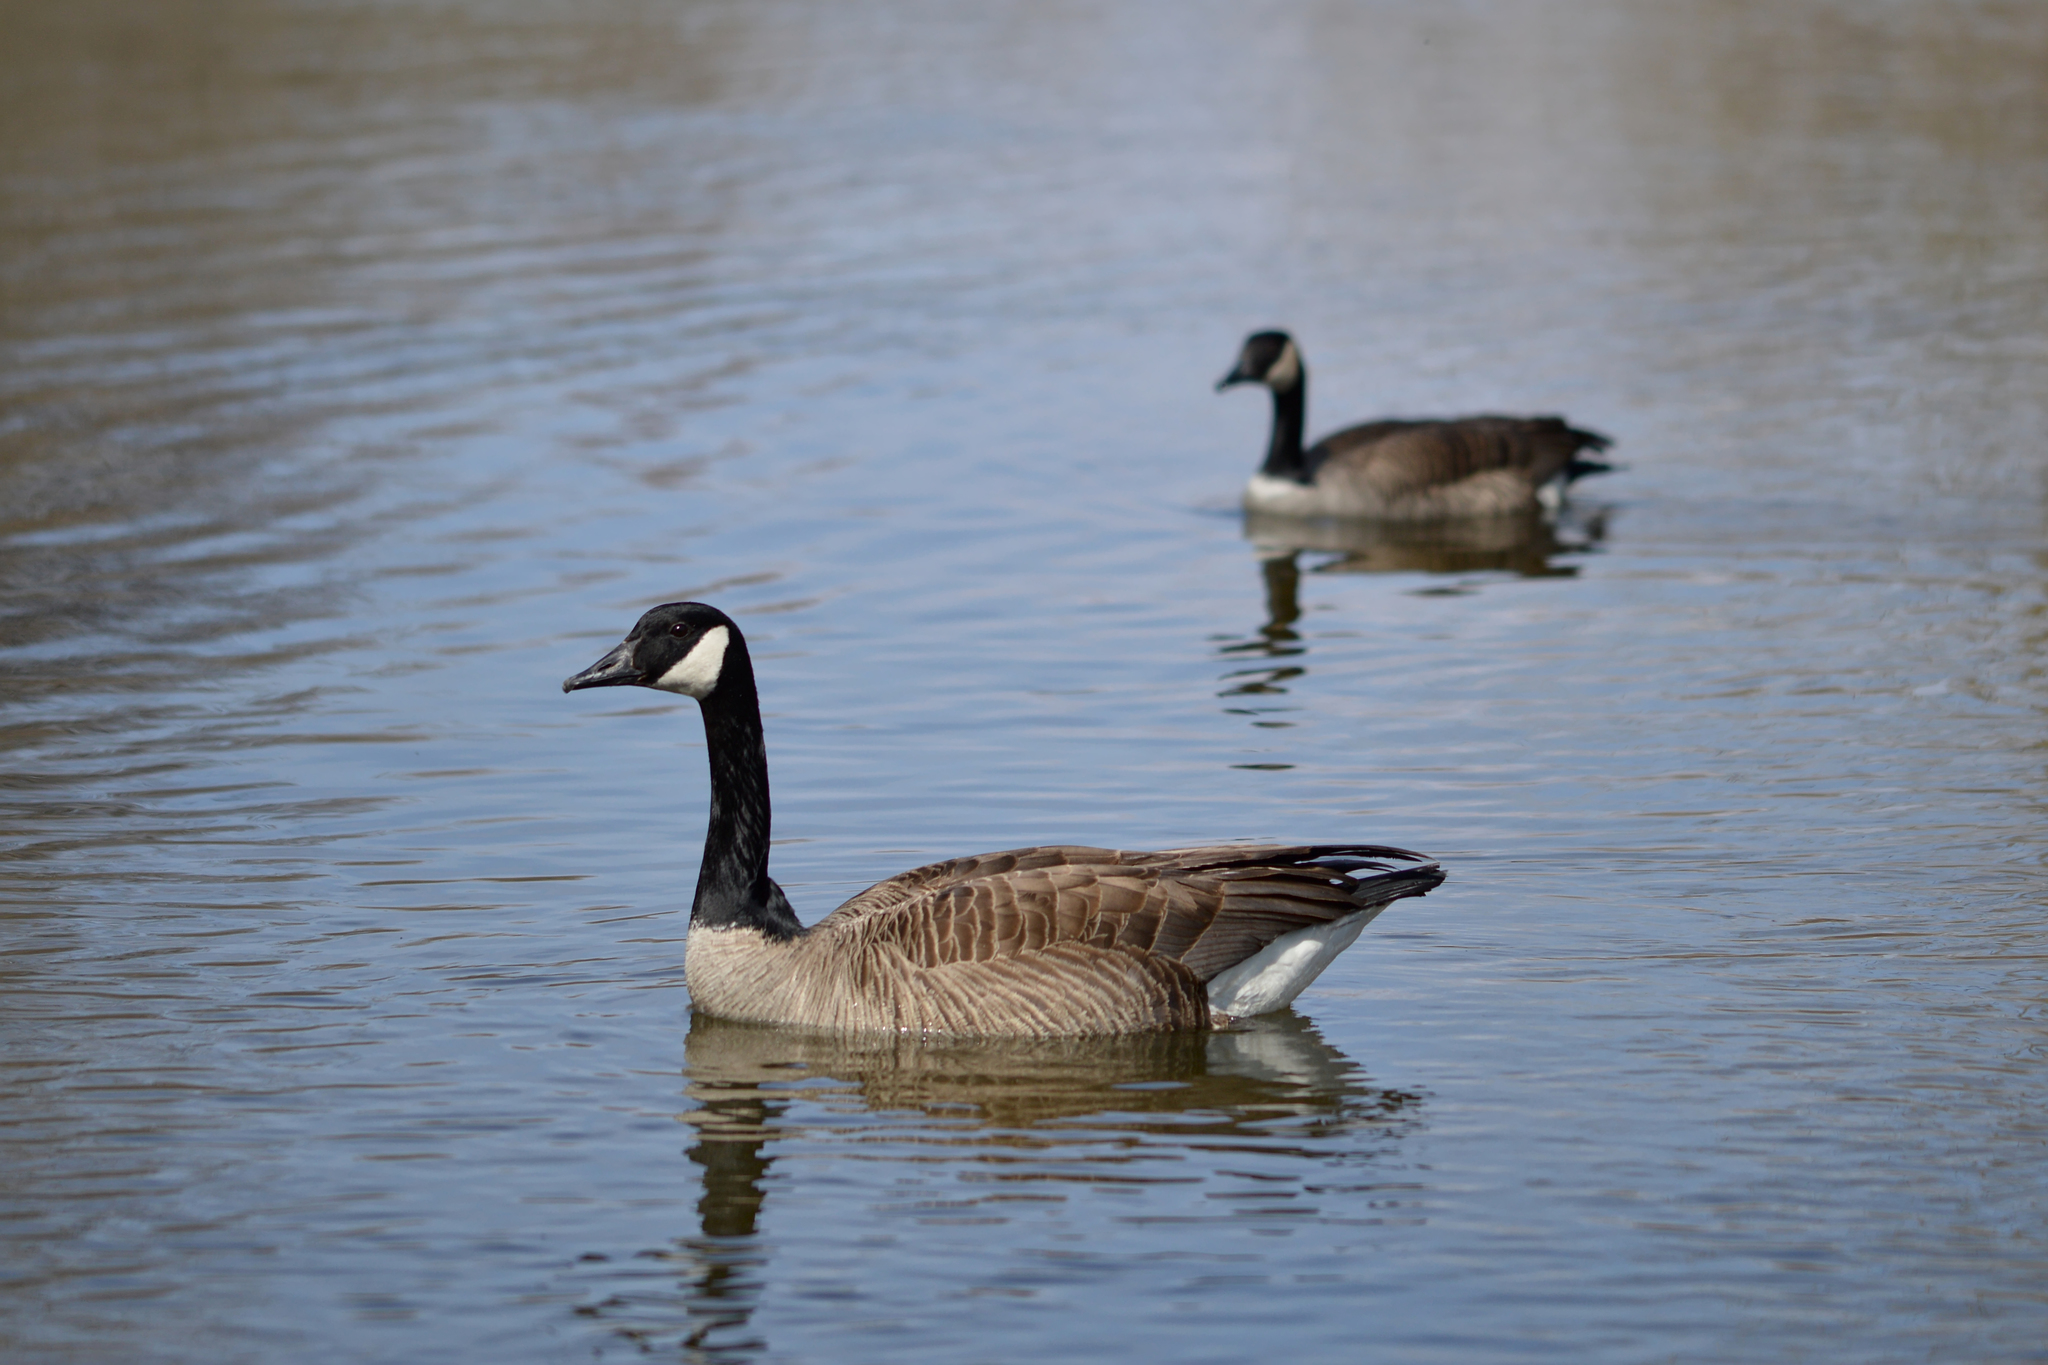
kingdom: Animalia
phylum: Chordata
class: Aves
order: Anseriformes
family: Anatidae
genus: Branta
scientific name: Branta canadensis
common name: Canada goose
